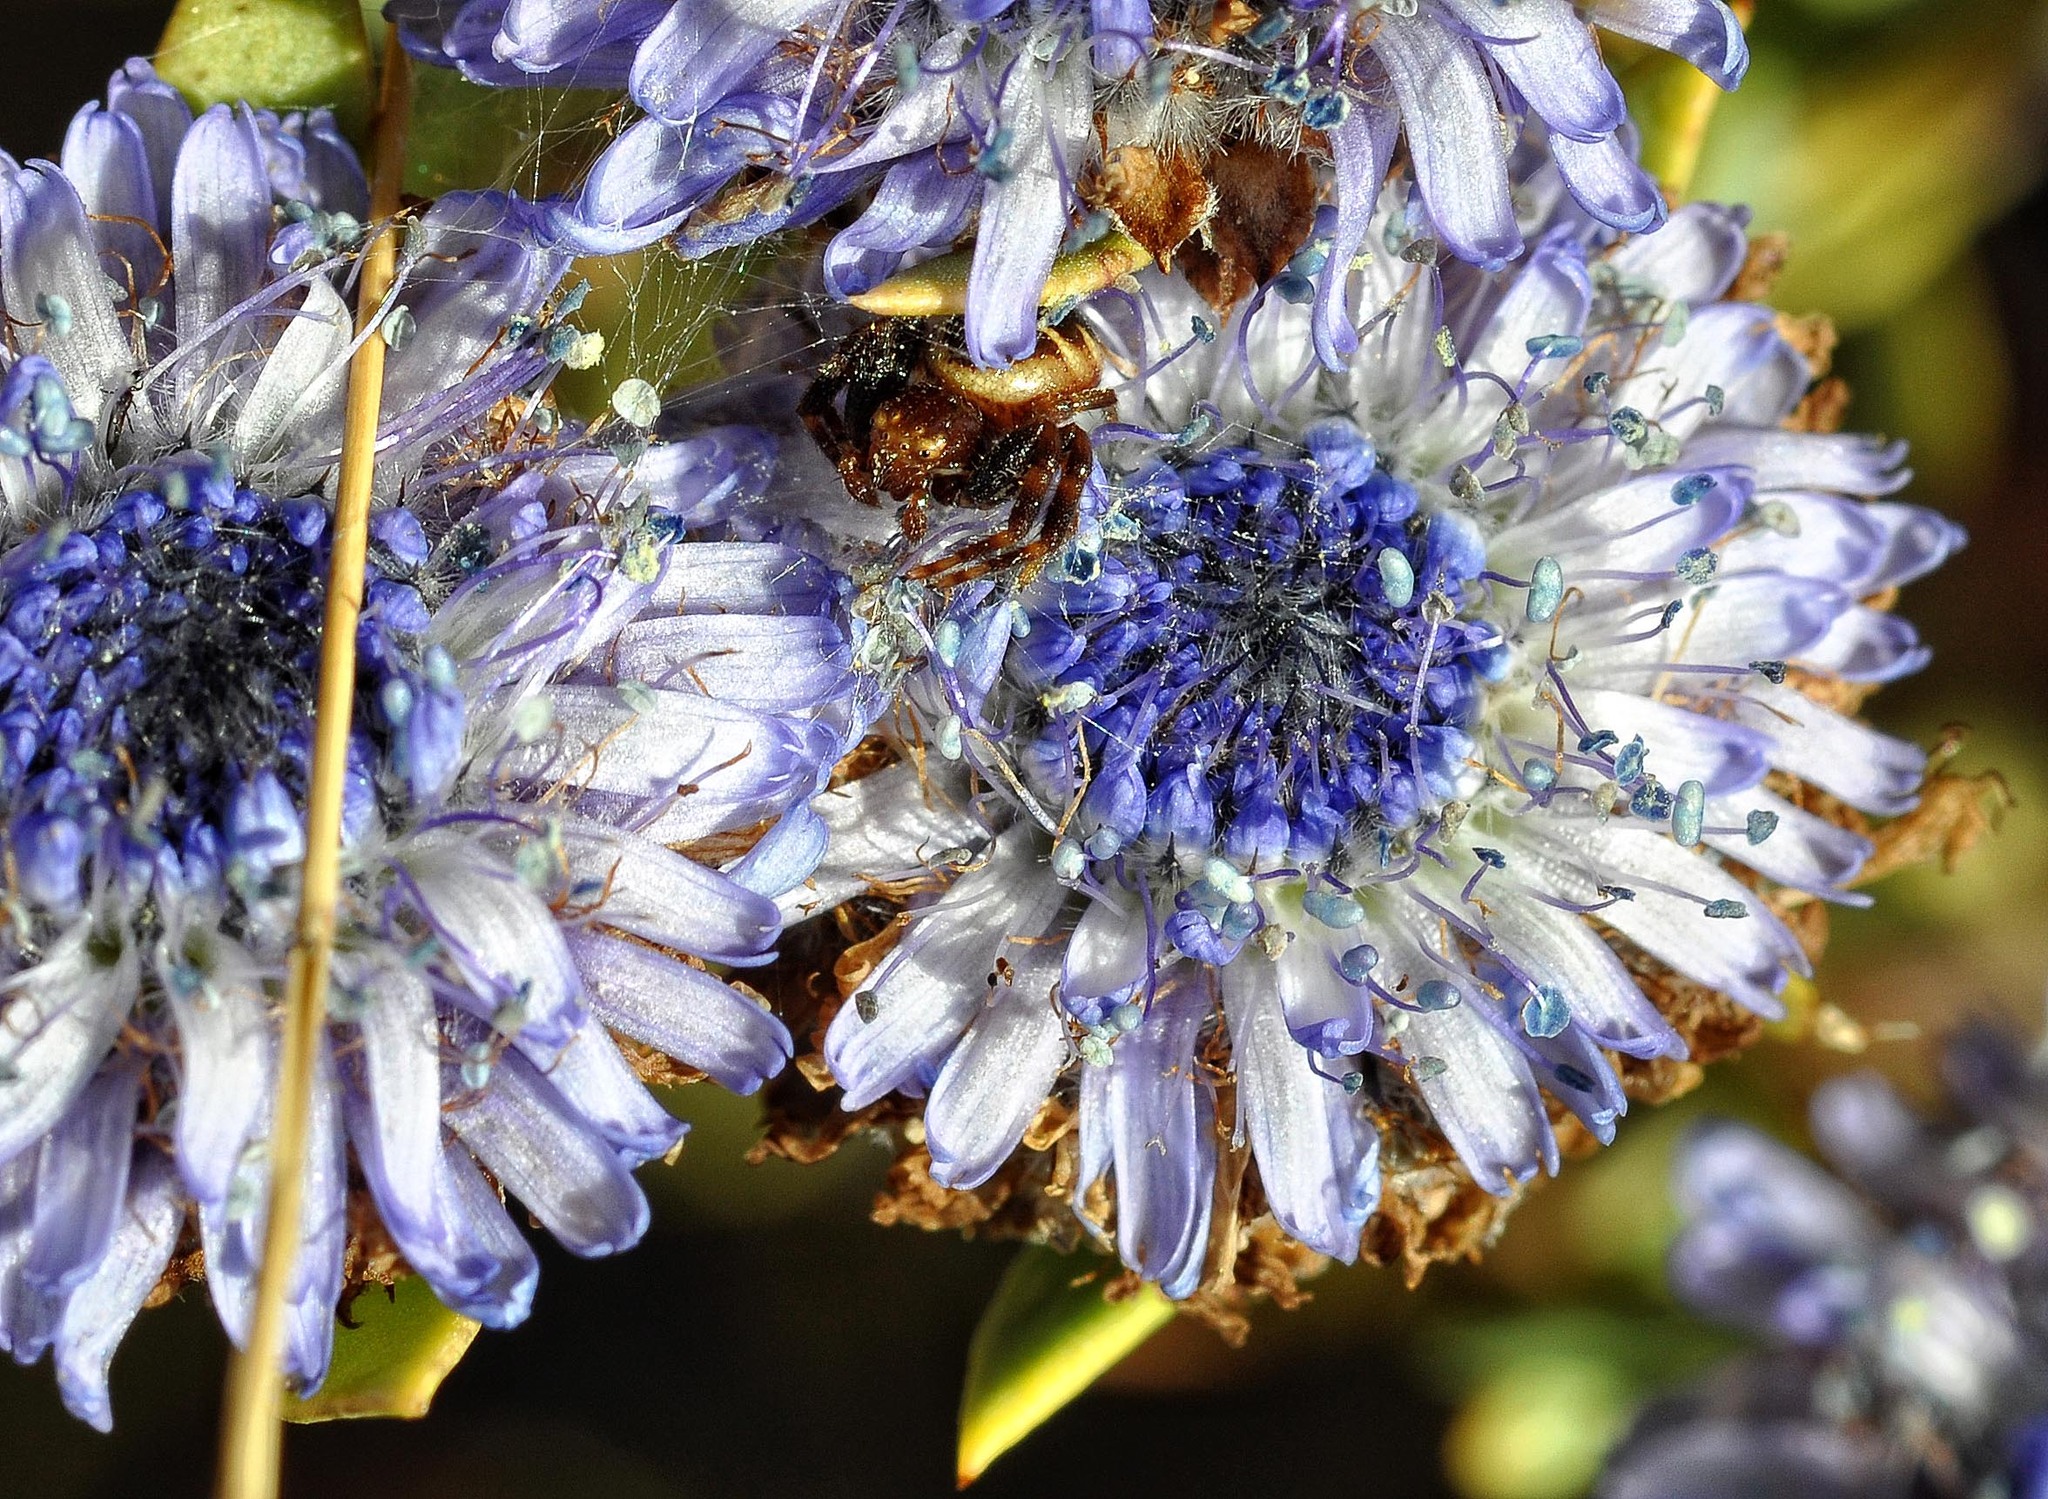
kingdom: Animalia
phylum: Arthropoda
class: Arachnida
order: Araneae
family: Thomisidae
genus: Synema
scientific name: Synema globosum
